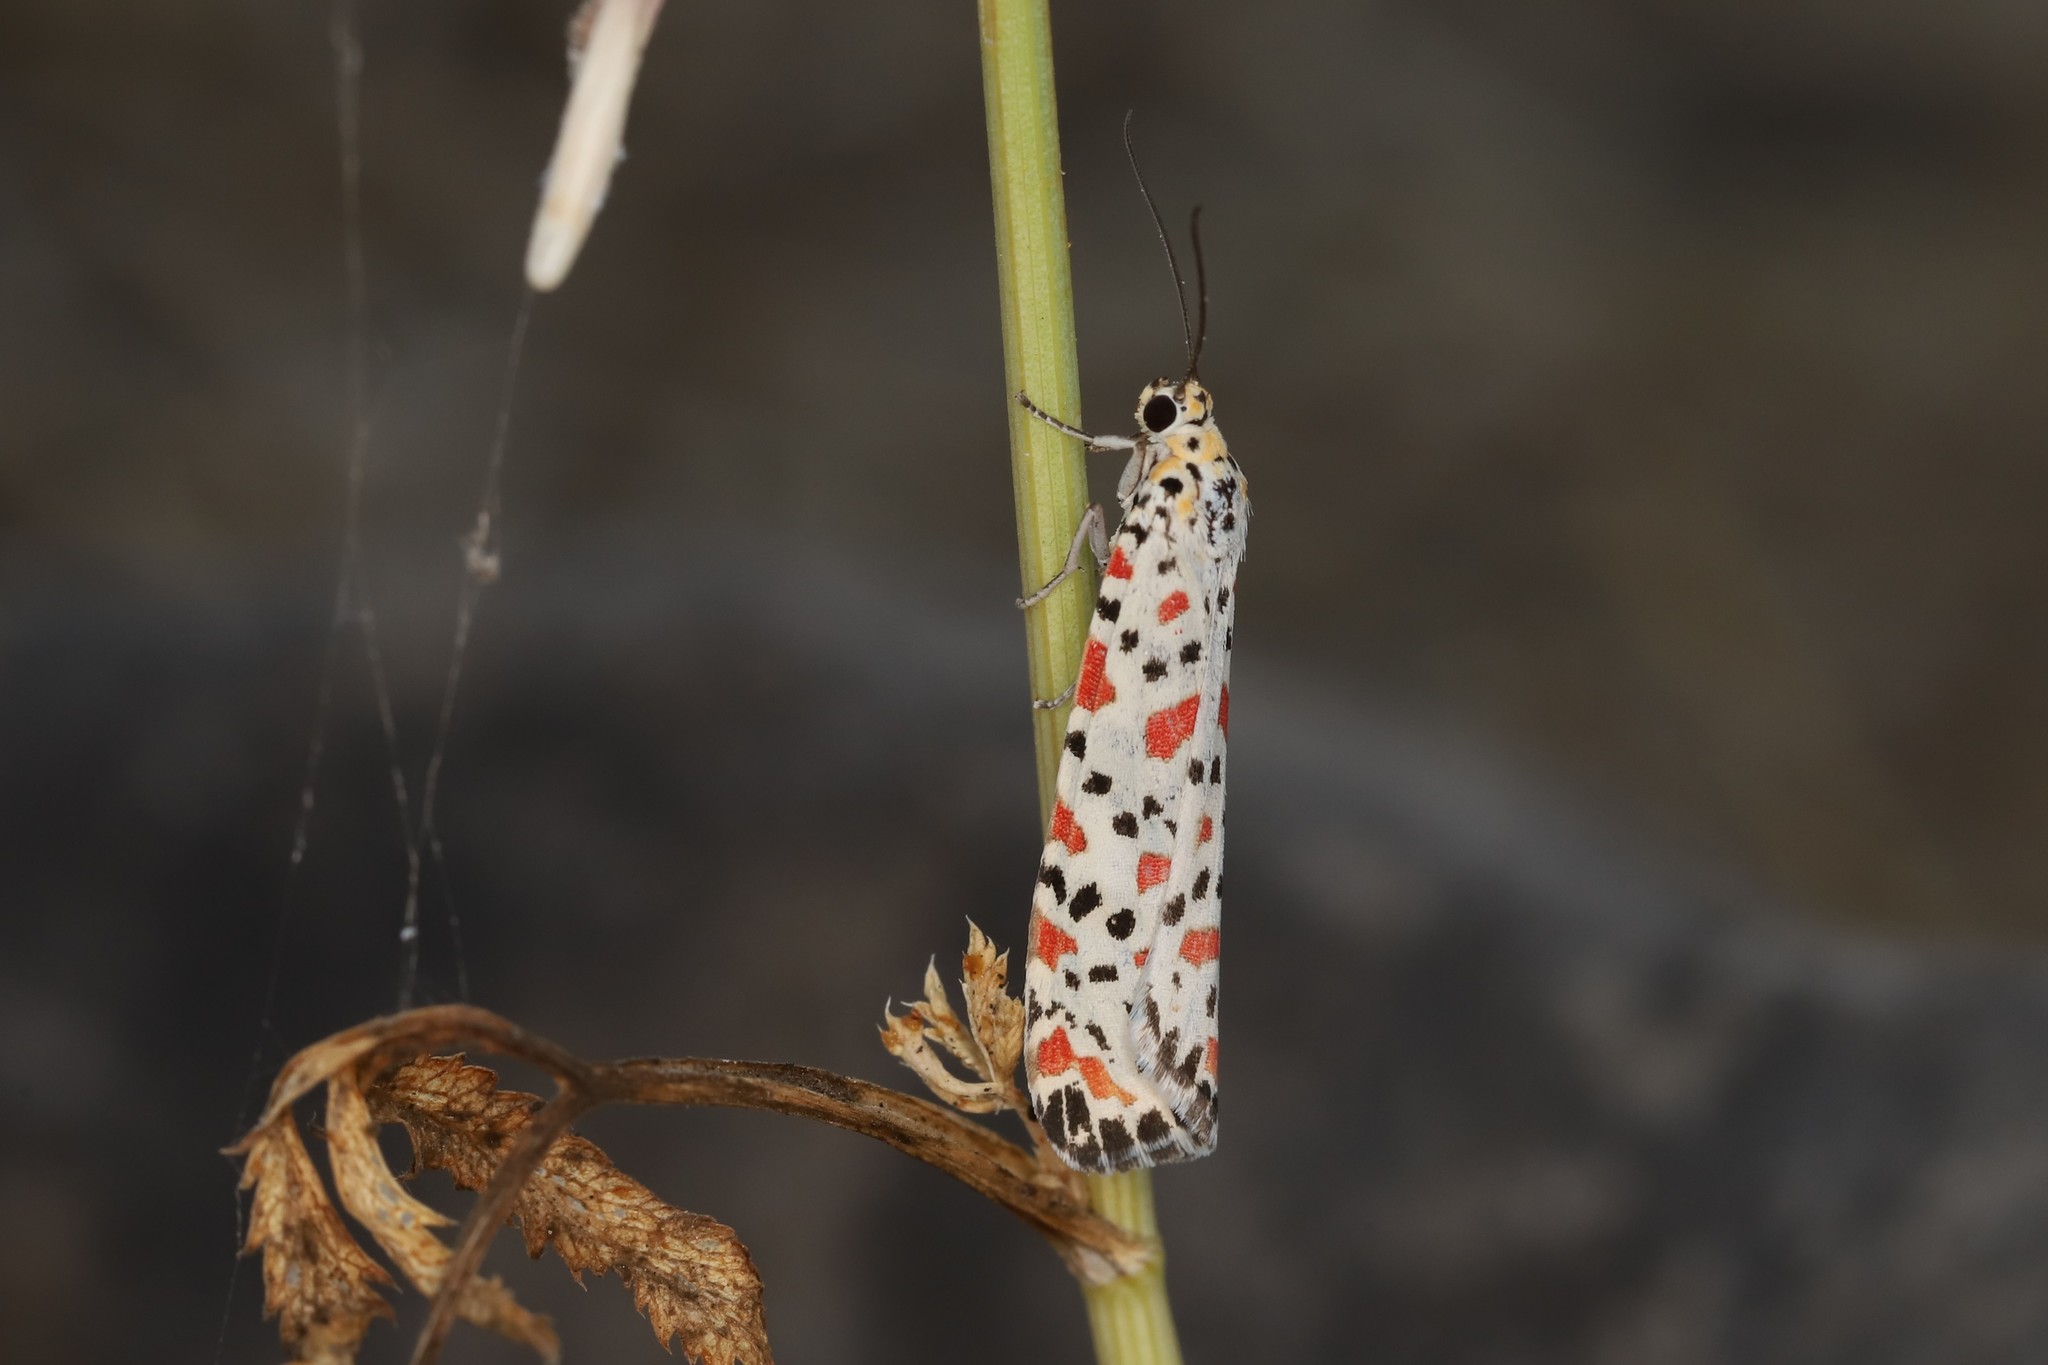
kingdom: Animalia
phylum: Arthropoda
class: Insecta
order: Lepidoptera
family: Erebidae
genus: Utetheisa
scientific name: Utetheisa lotrix
